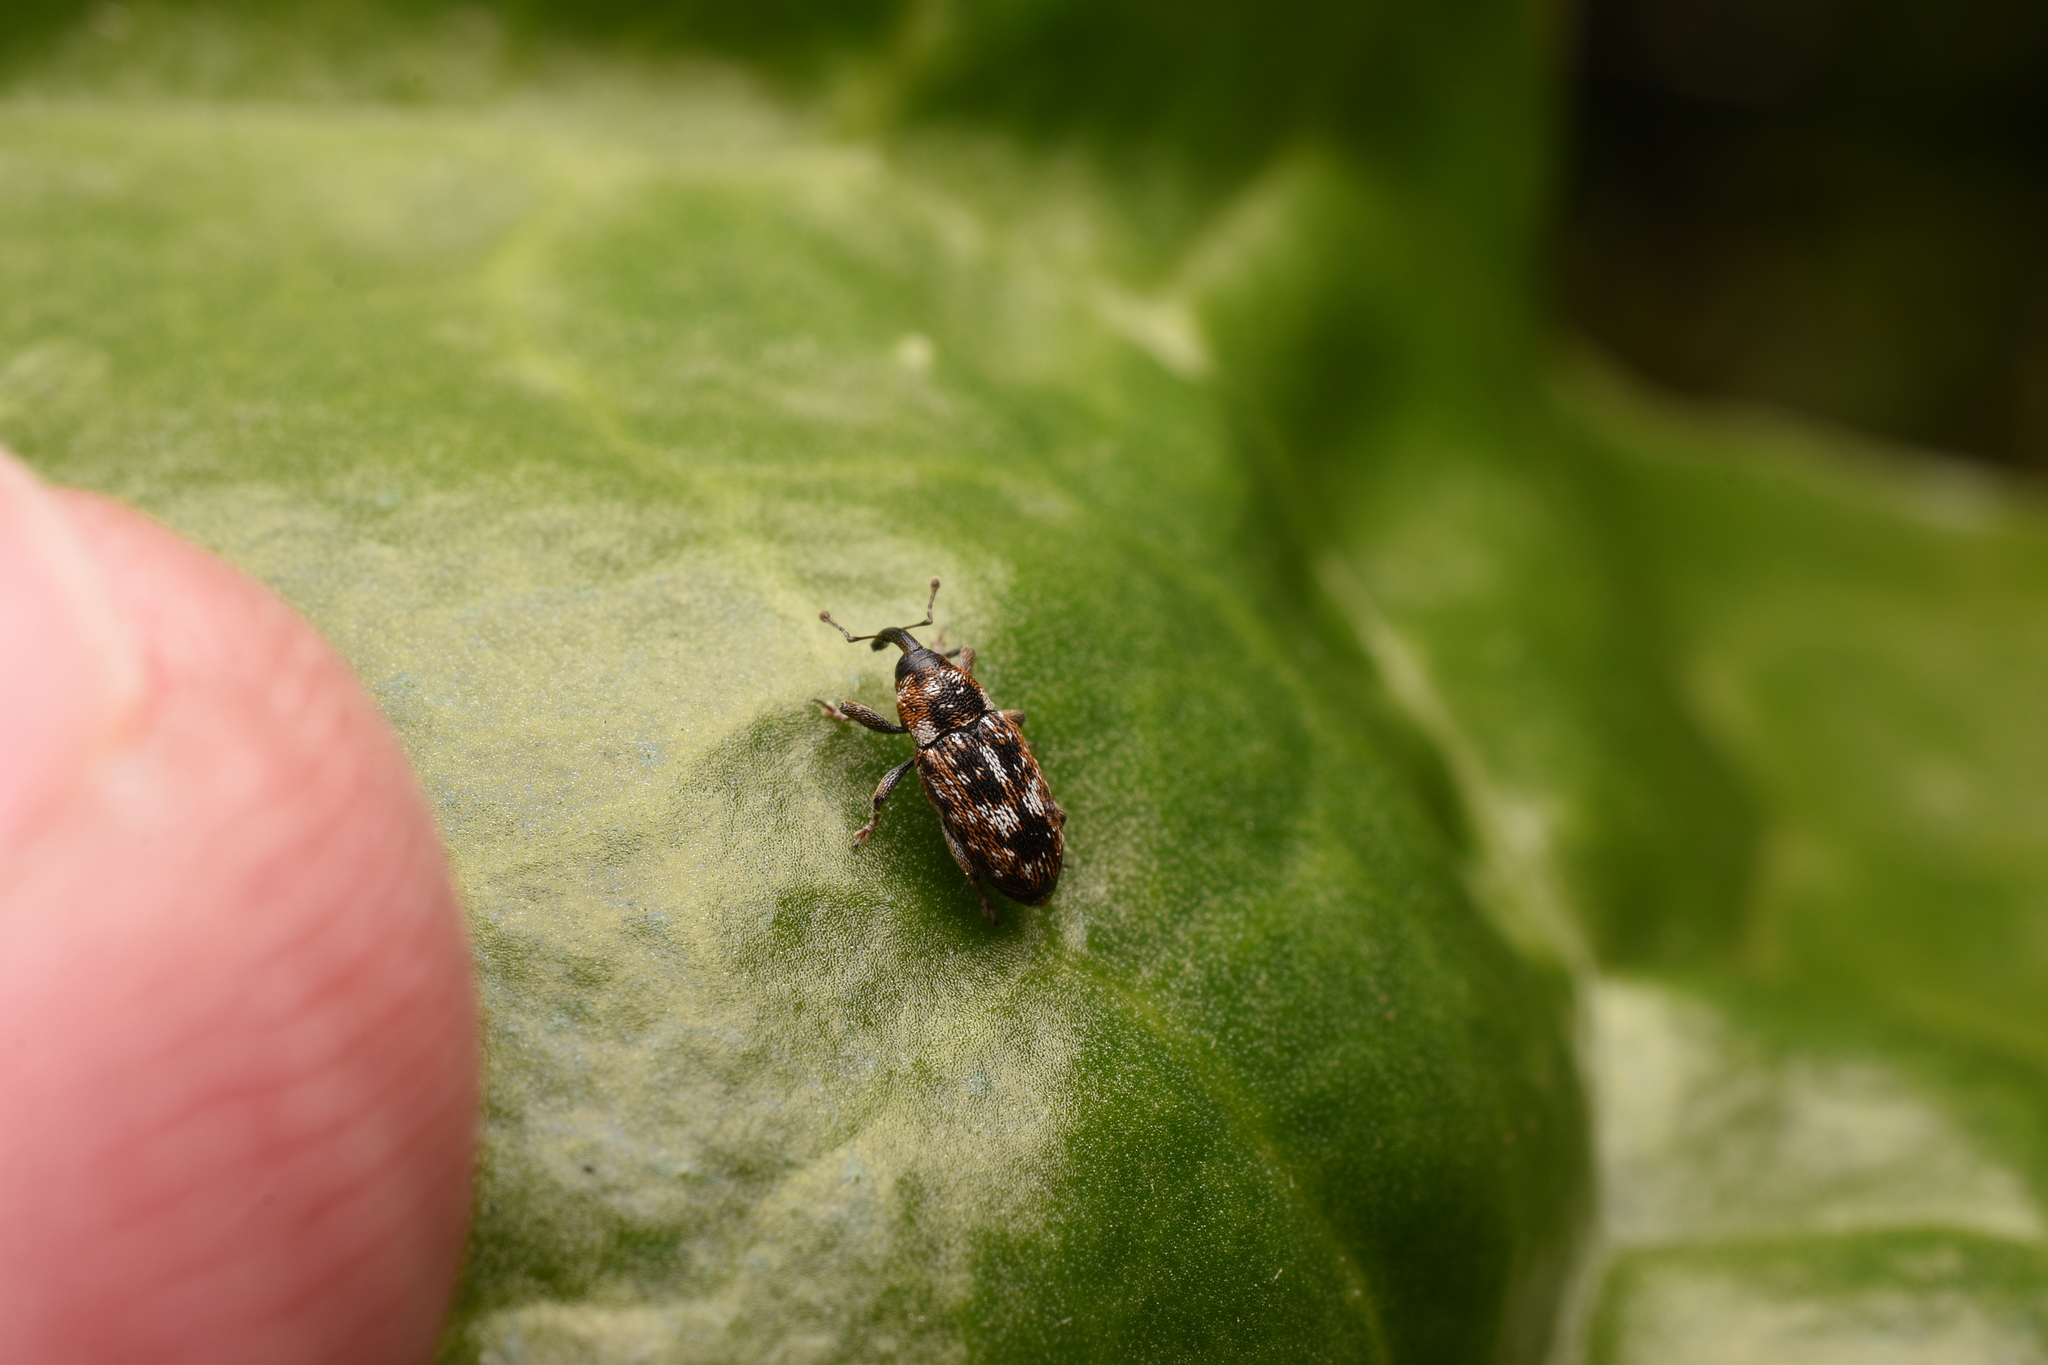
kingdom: Animalia
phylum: Arthropoda
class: Insecta
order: Coleoptera
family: Curculionidae
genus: Cosmobaris
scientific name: Cosmobaris scolopacea
